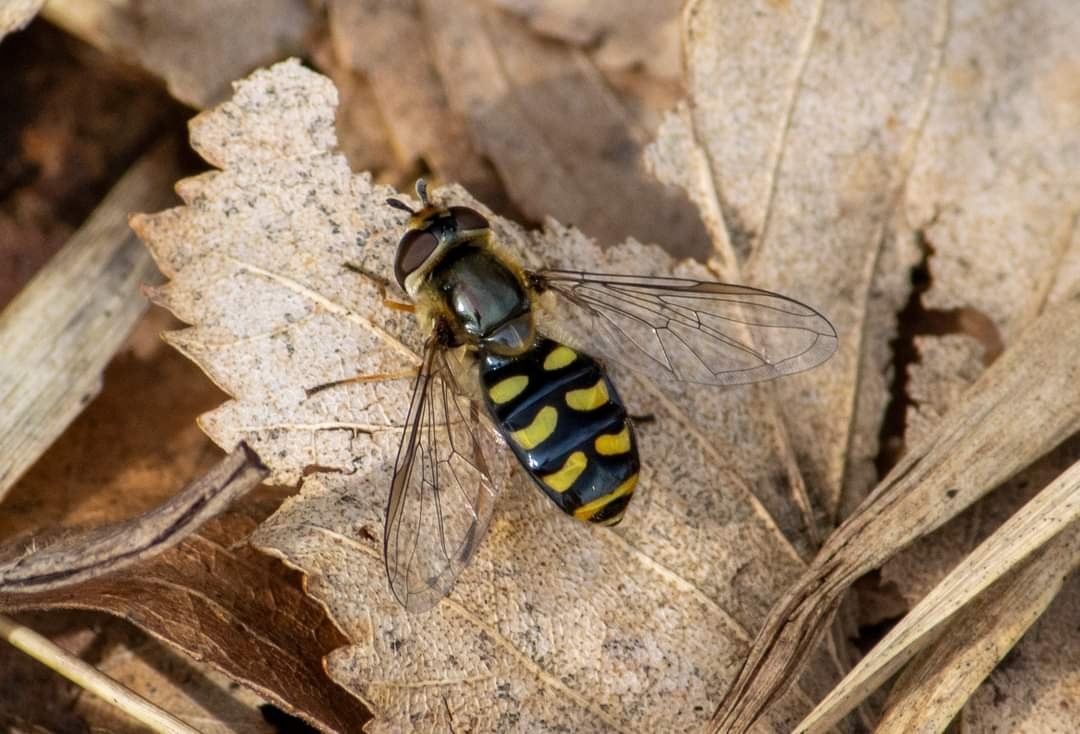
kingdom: Animalia
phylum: Arthropoda
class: Insecta
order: Diptera
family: Syrphidae
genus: Eupeodes
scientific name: Eupeodes luniger
